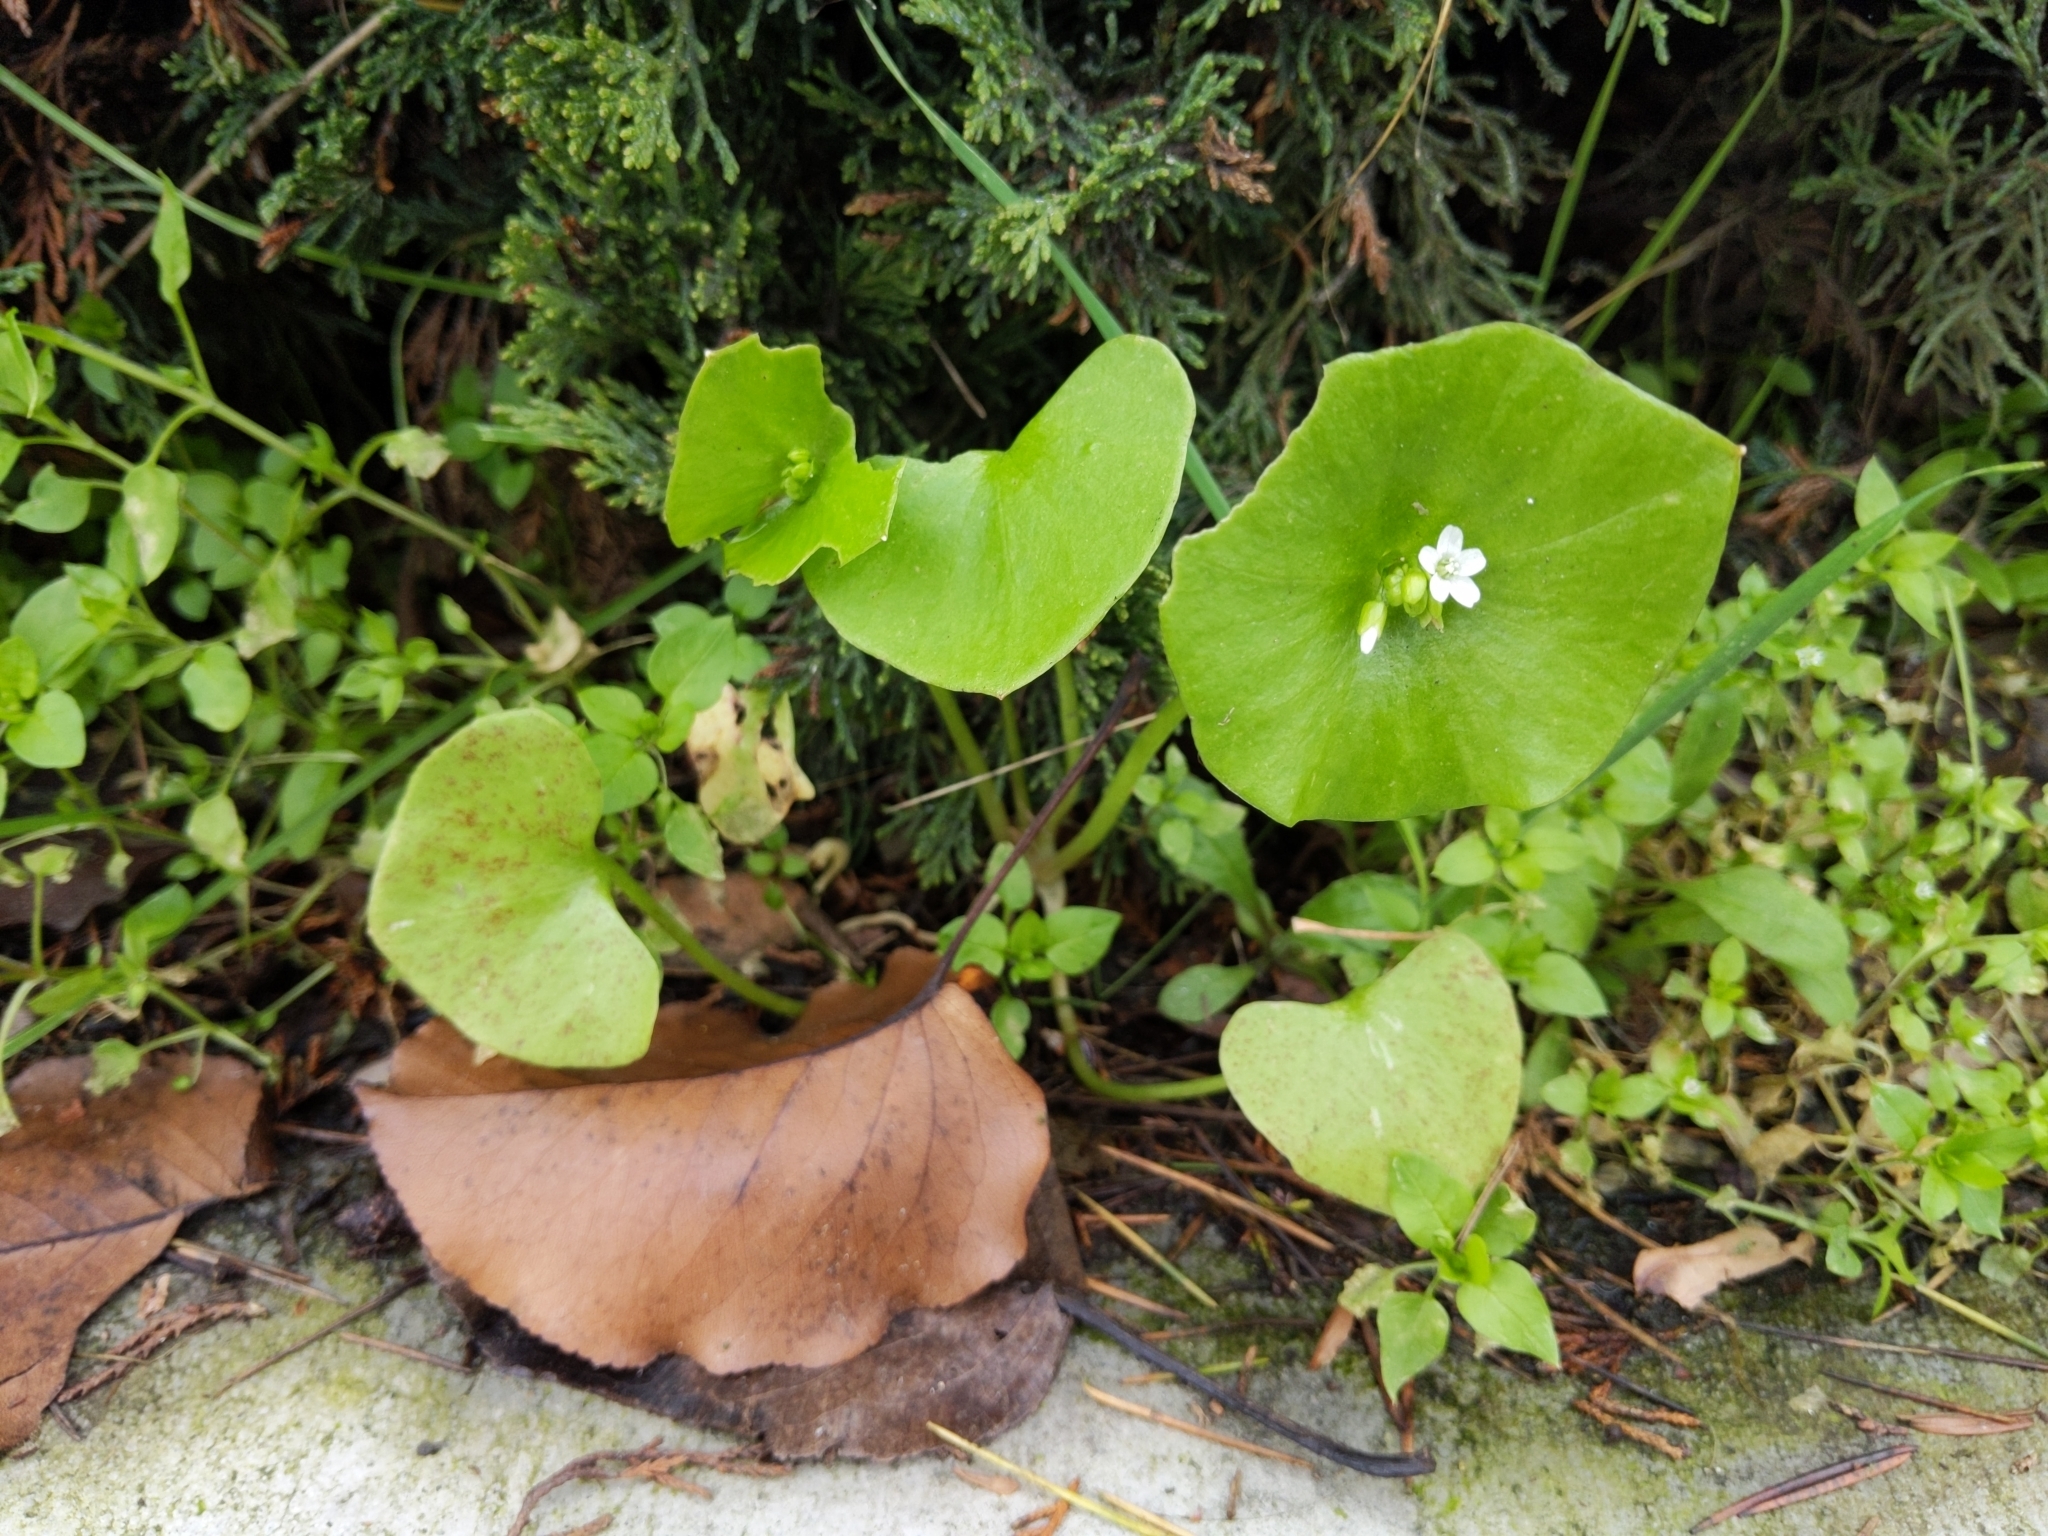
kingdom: Plantae
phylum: Tracheophyta
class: Magnoliopsida
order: Caryophyllales
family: Montiaceae
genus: Claytonia
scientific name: Claytonia perfoliata
